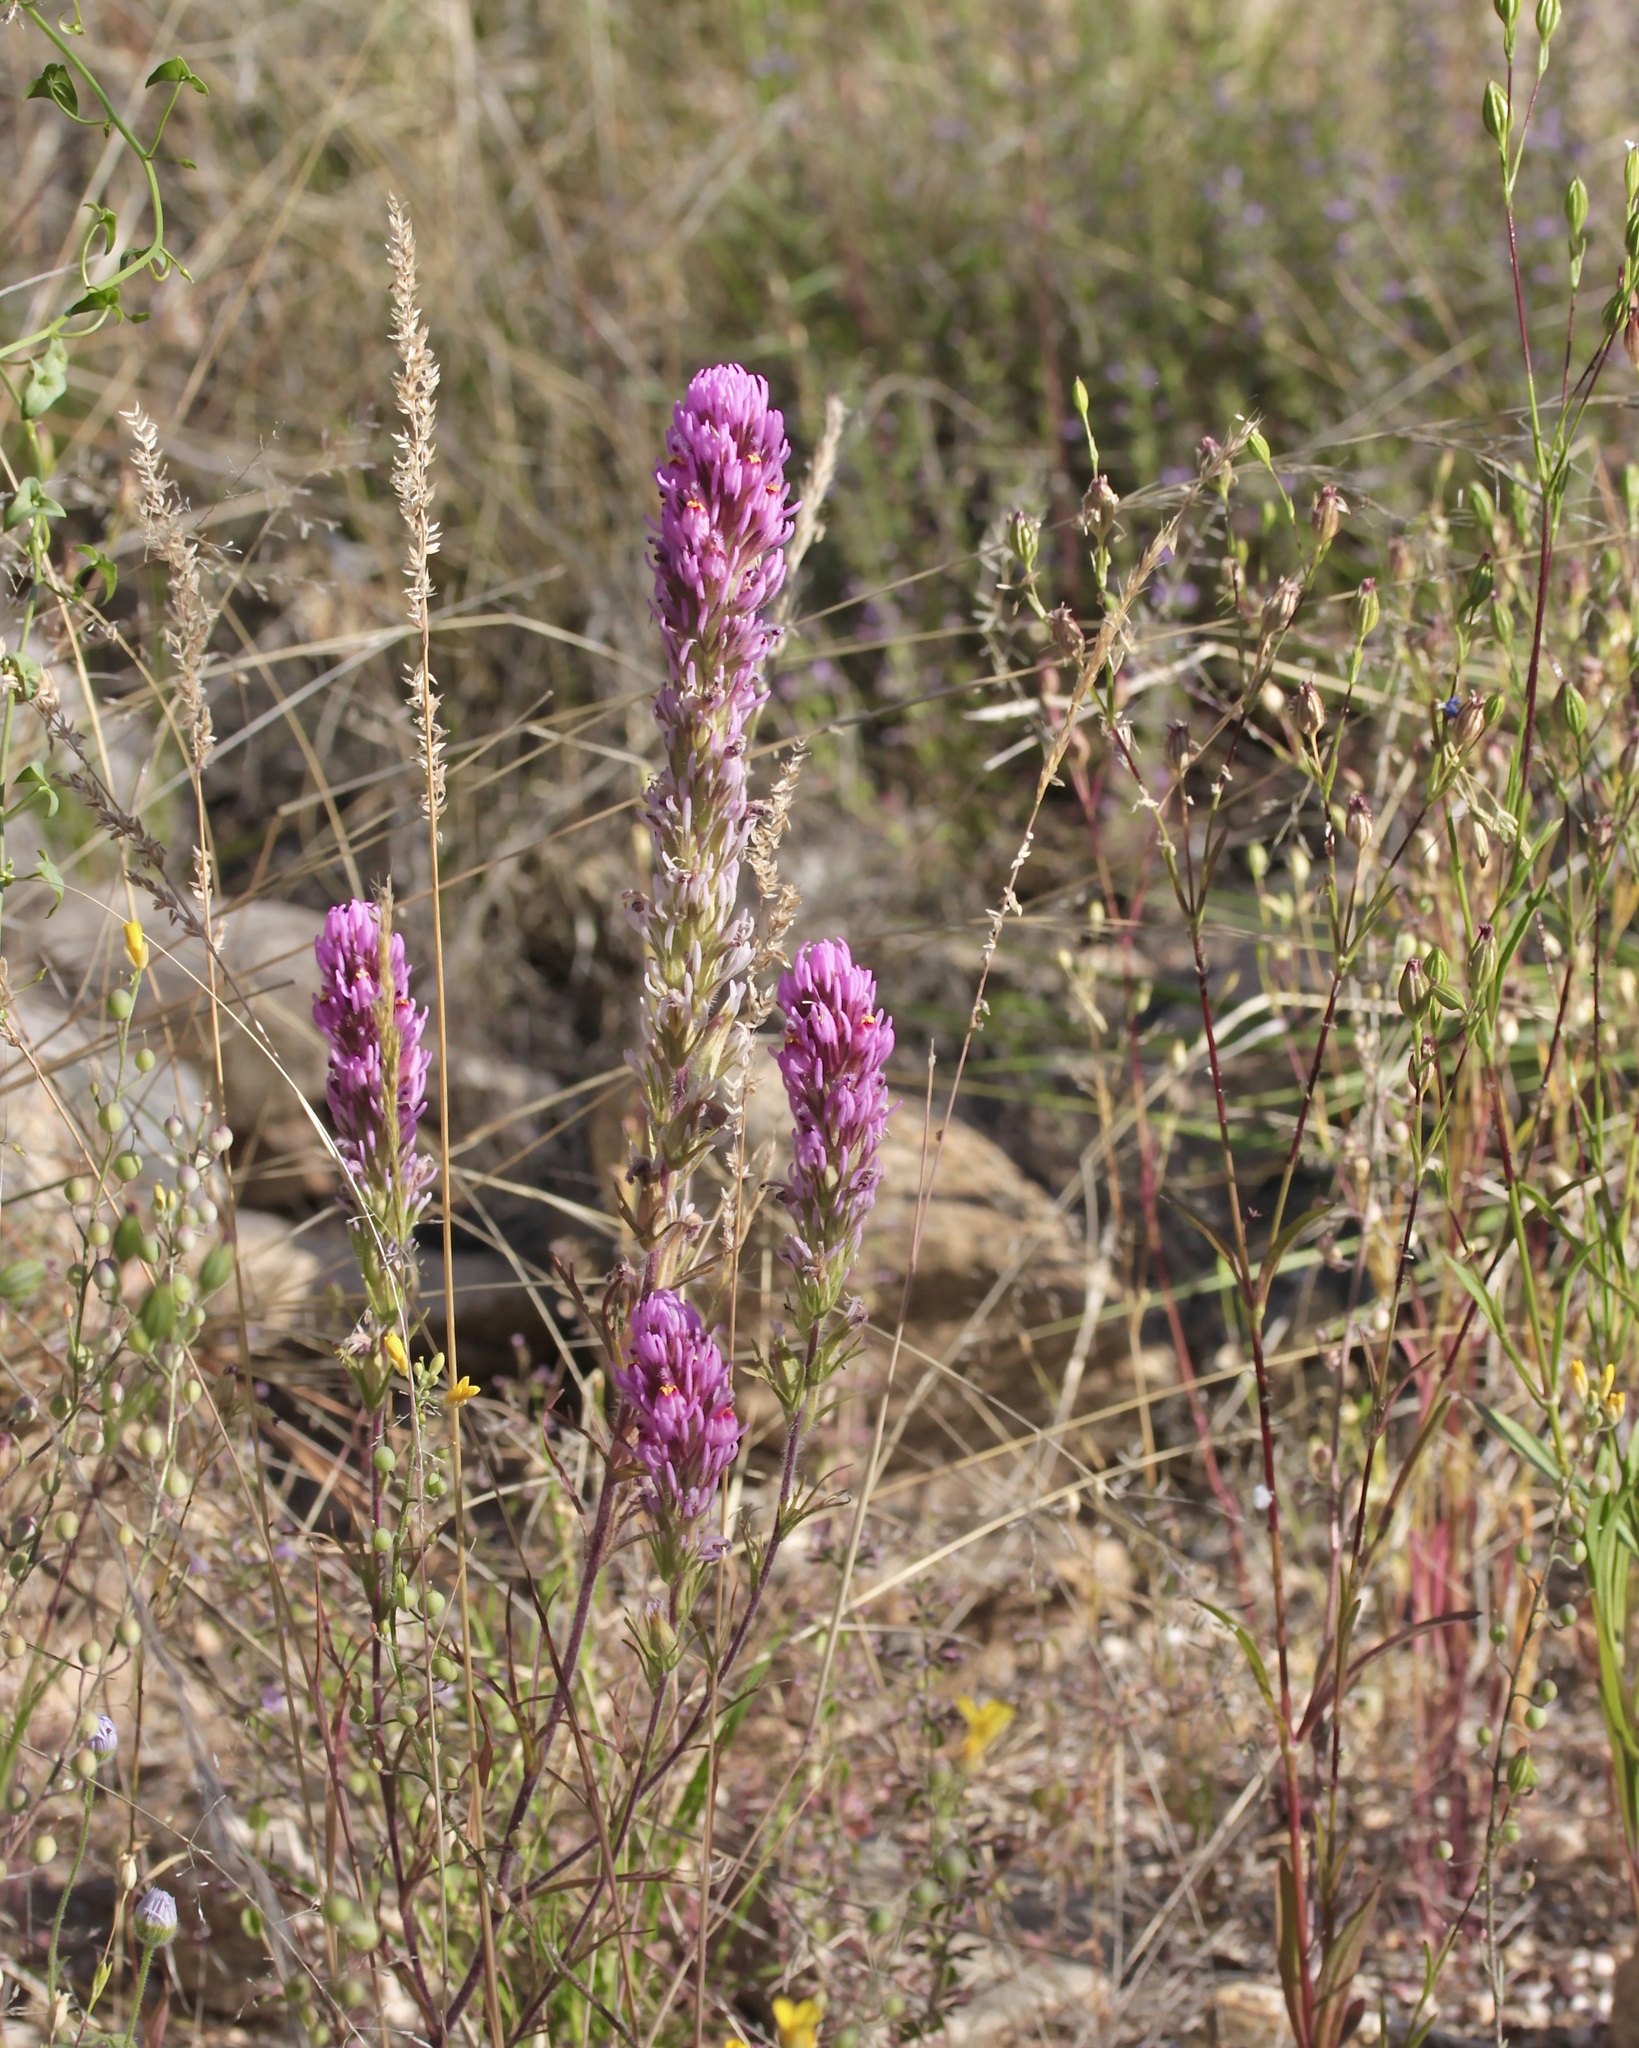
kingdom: Plantae
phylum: Tracheophyta
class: Magnoliopsida
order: Lamiales
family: Orobanchaceae
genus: Castilleja
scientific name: Castilleja exserta
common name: Purple owl-clover
